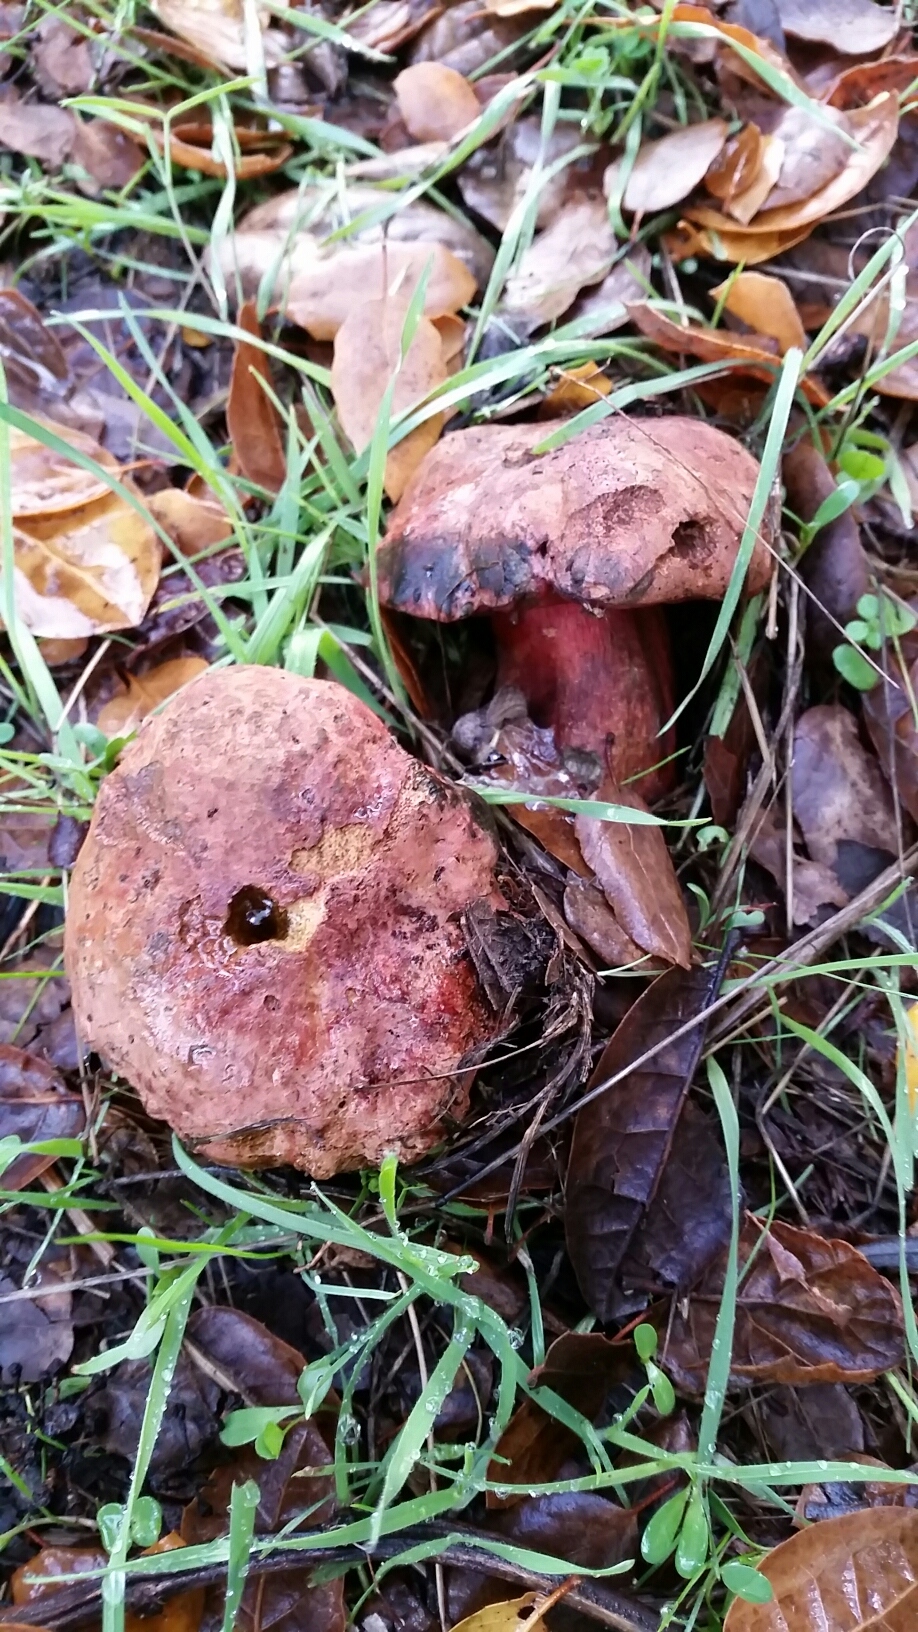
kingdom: Fungi
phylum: Basidiomycota
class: Agaricomycetes
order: Boletales
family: Boletaceae
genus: Suillellus
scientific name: Suillellus amygdalinus
